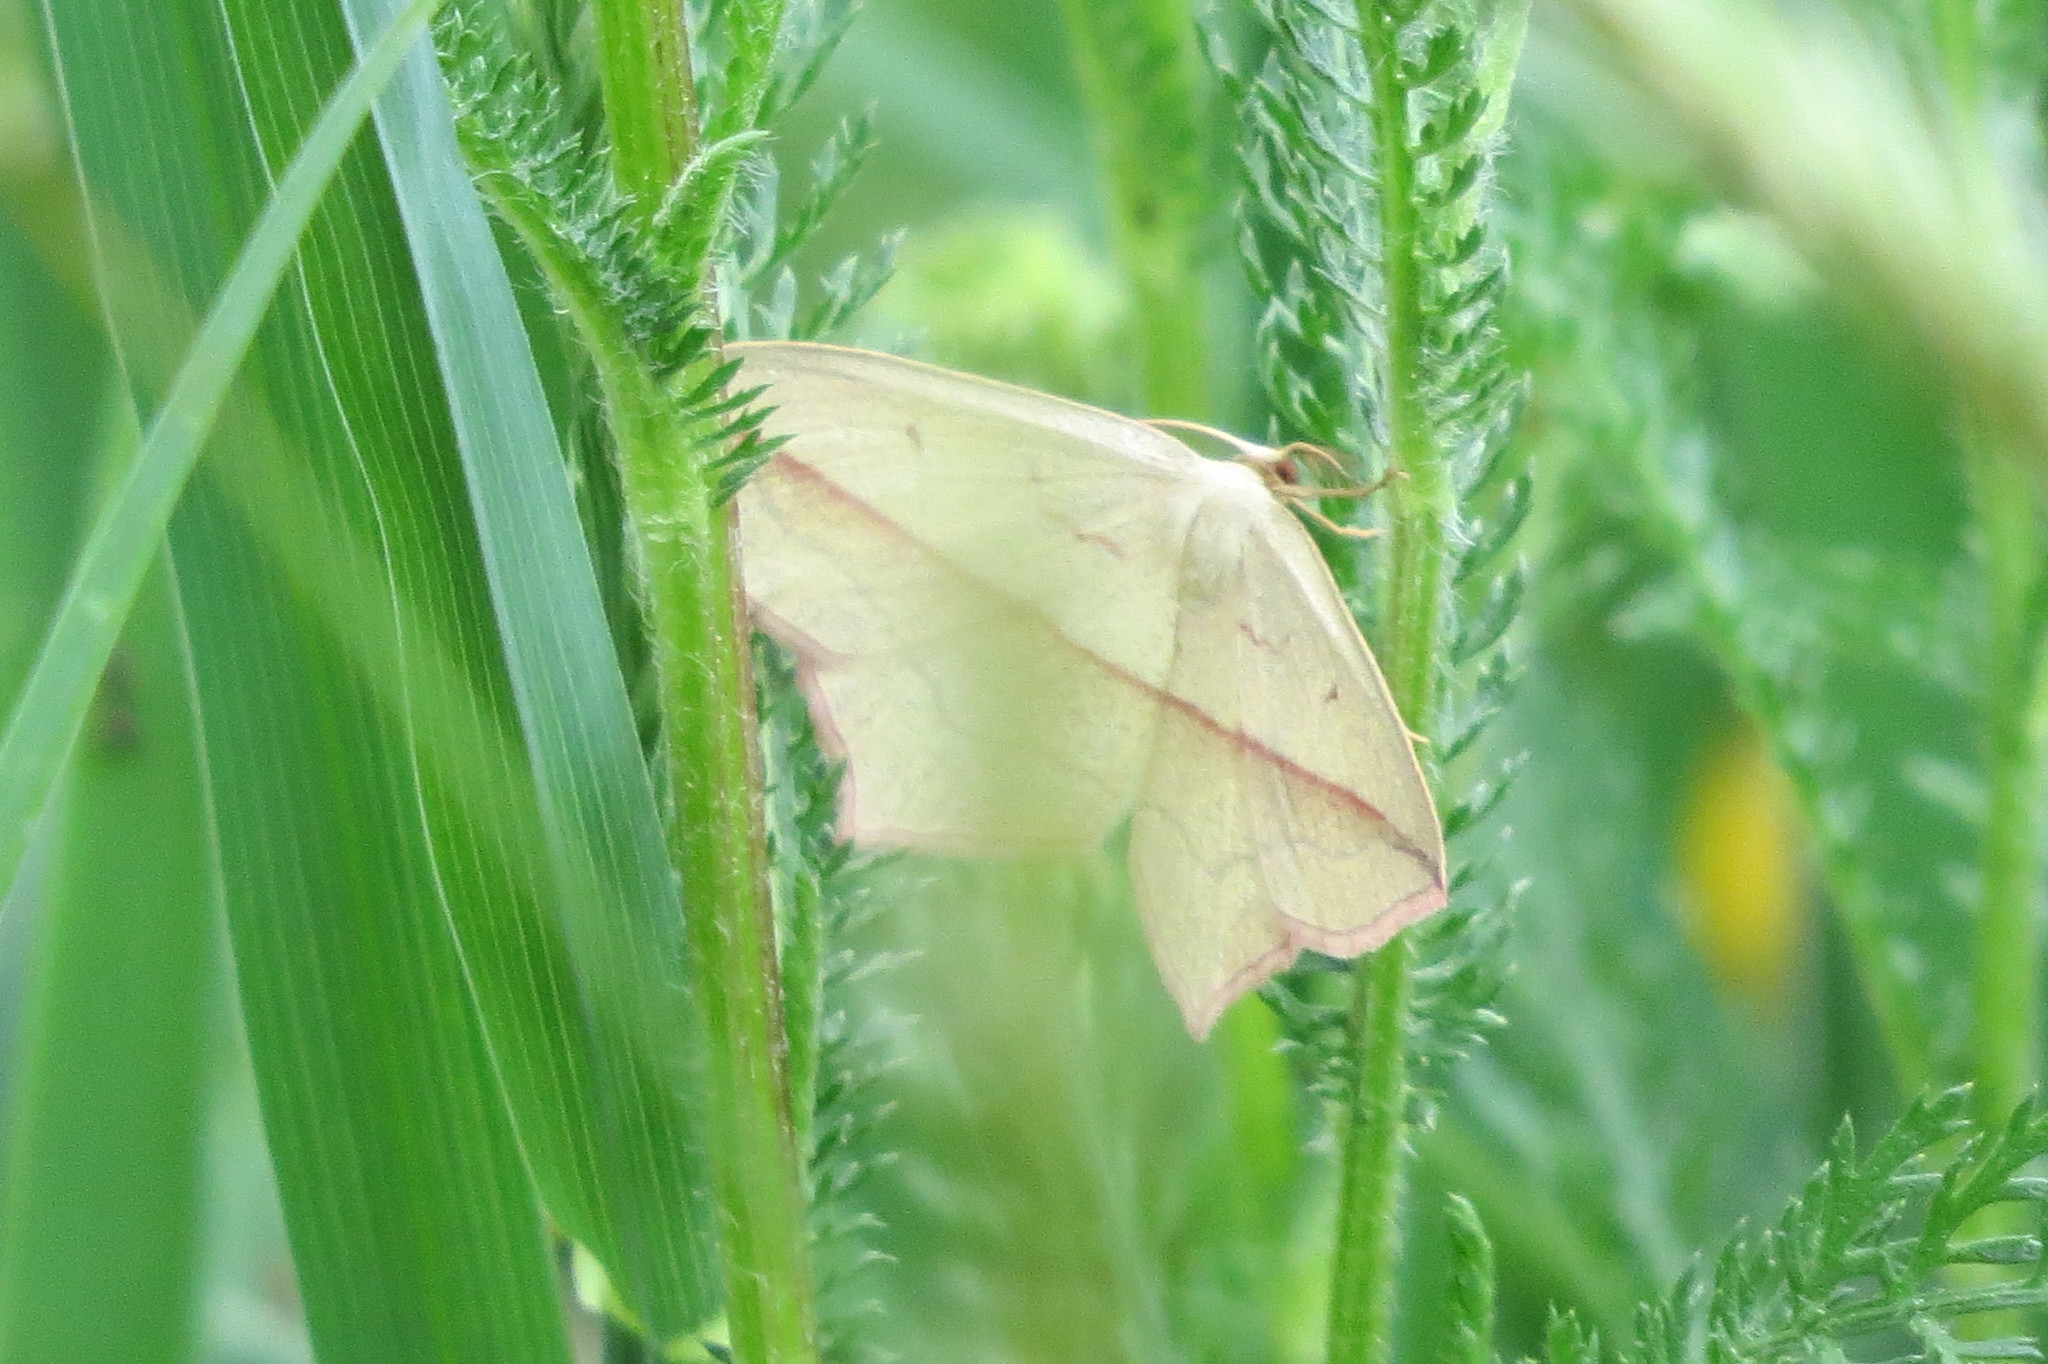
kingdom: Animalia
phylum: Arthropoda
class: Insecta
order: Lepidoptera
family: Geometridae
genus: Timandra
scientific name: Timandra comae
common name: Blood-vein
